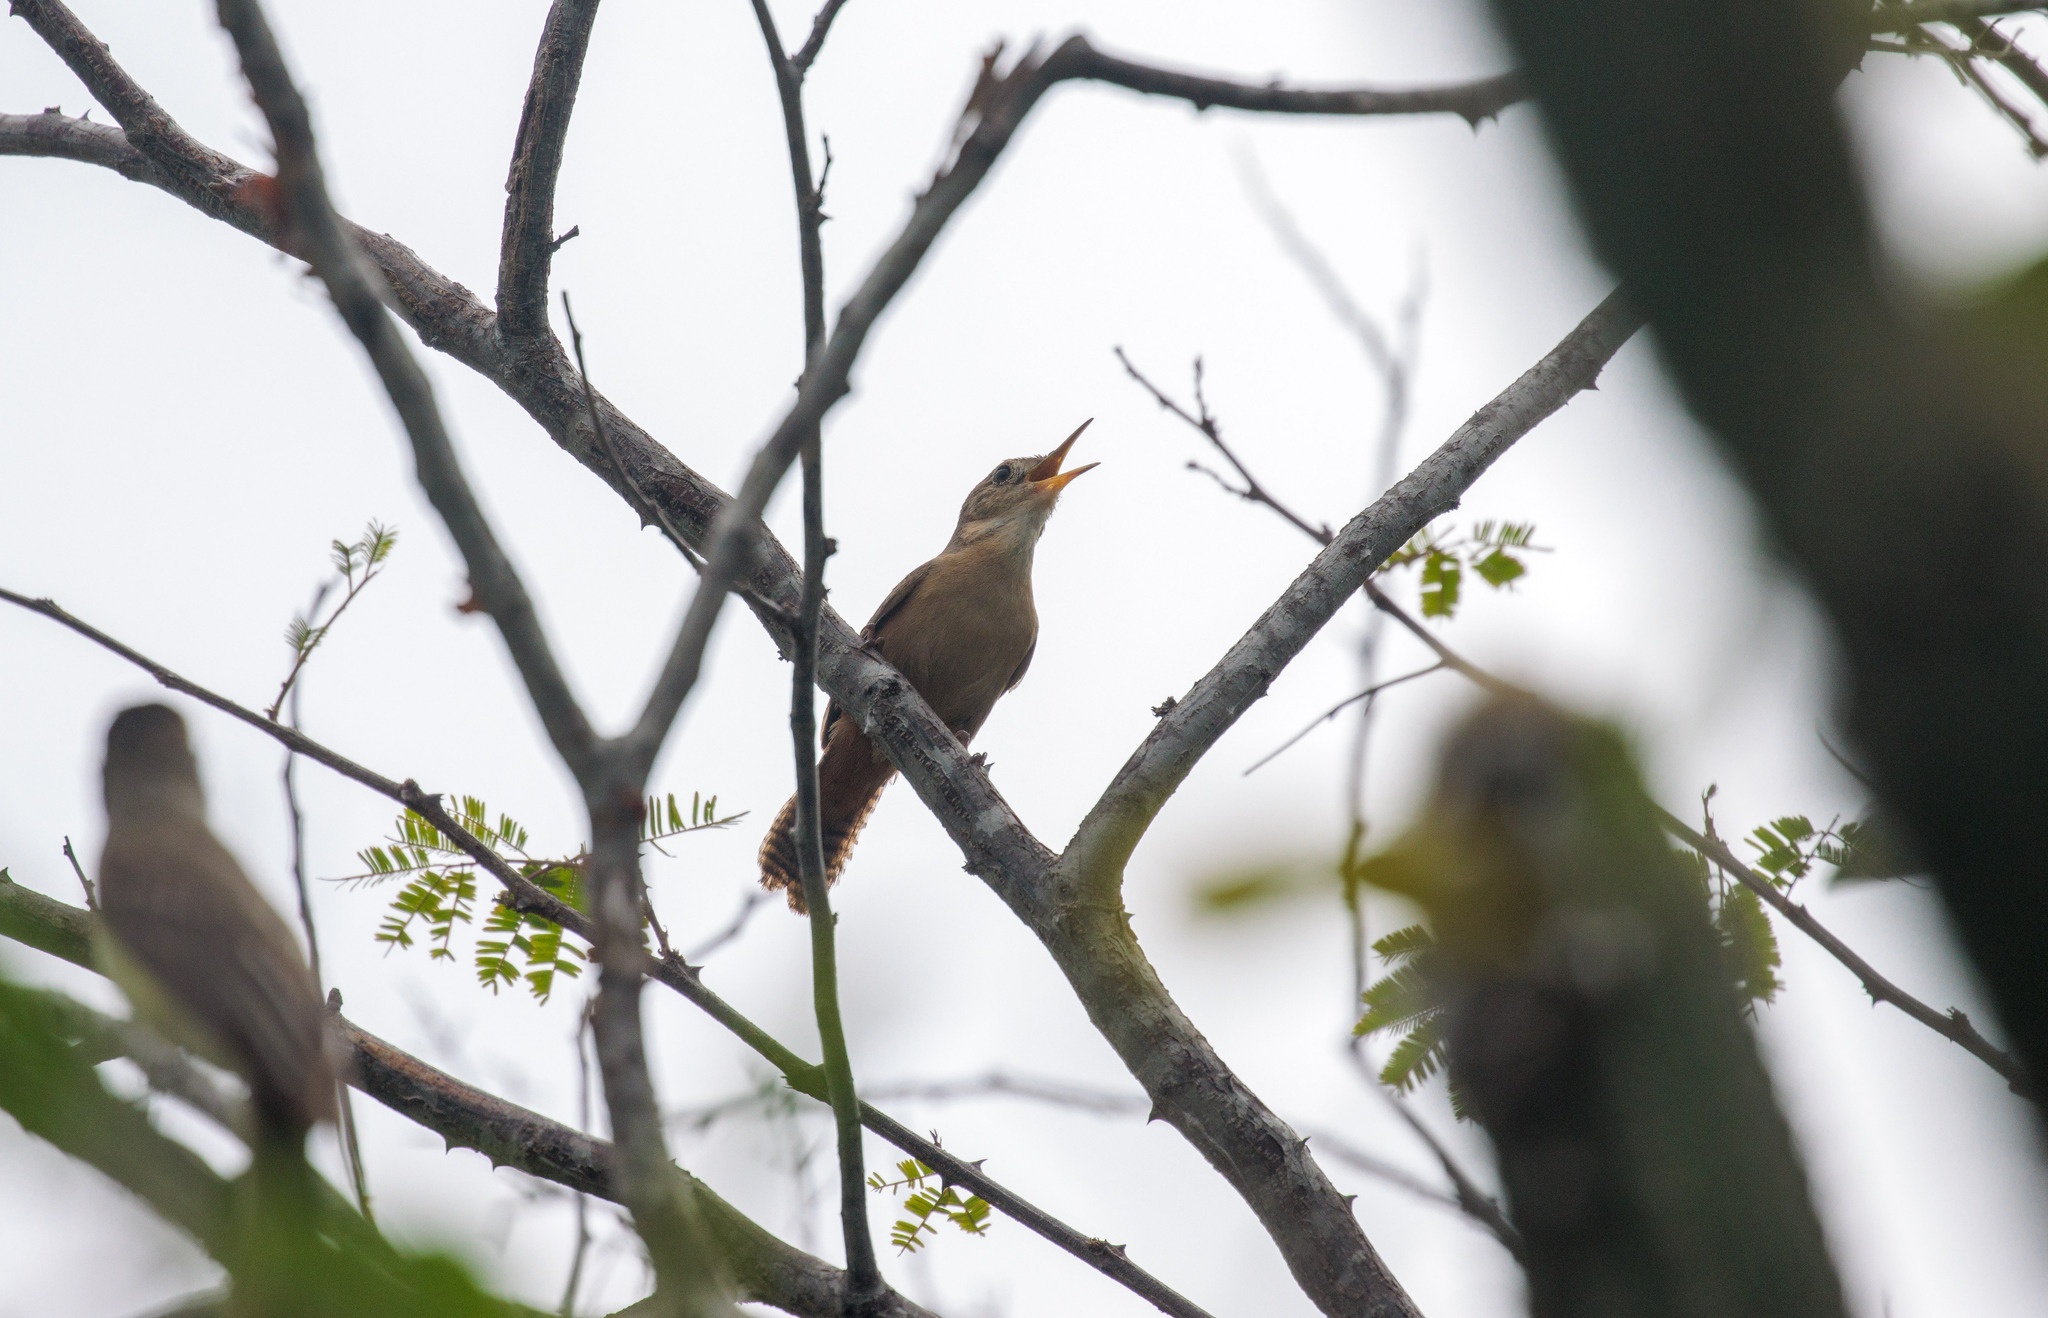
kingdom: Animalia
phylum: Chordata
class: Aves
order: Passeriformes
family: Troglodytidae
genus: Troglodytes
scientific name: Troglodytes aedon
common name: House wren
